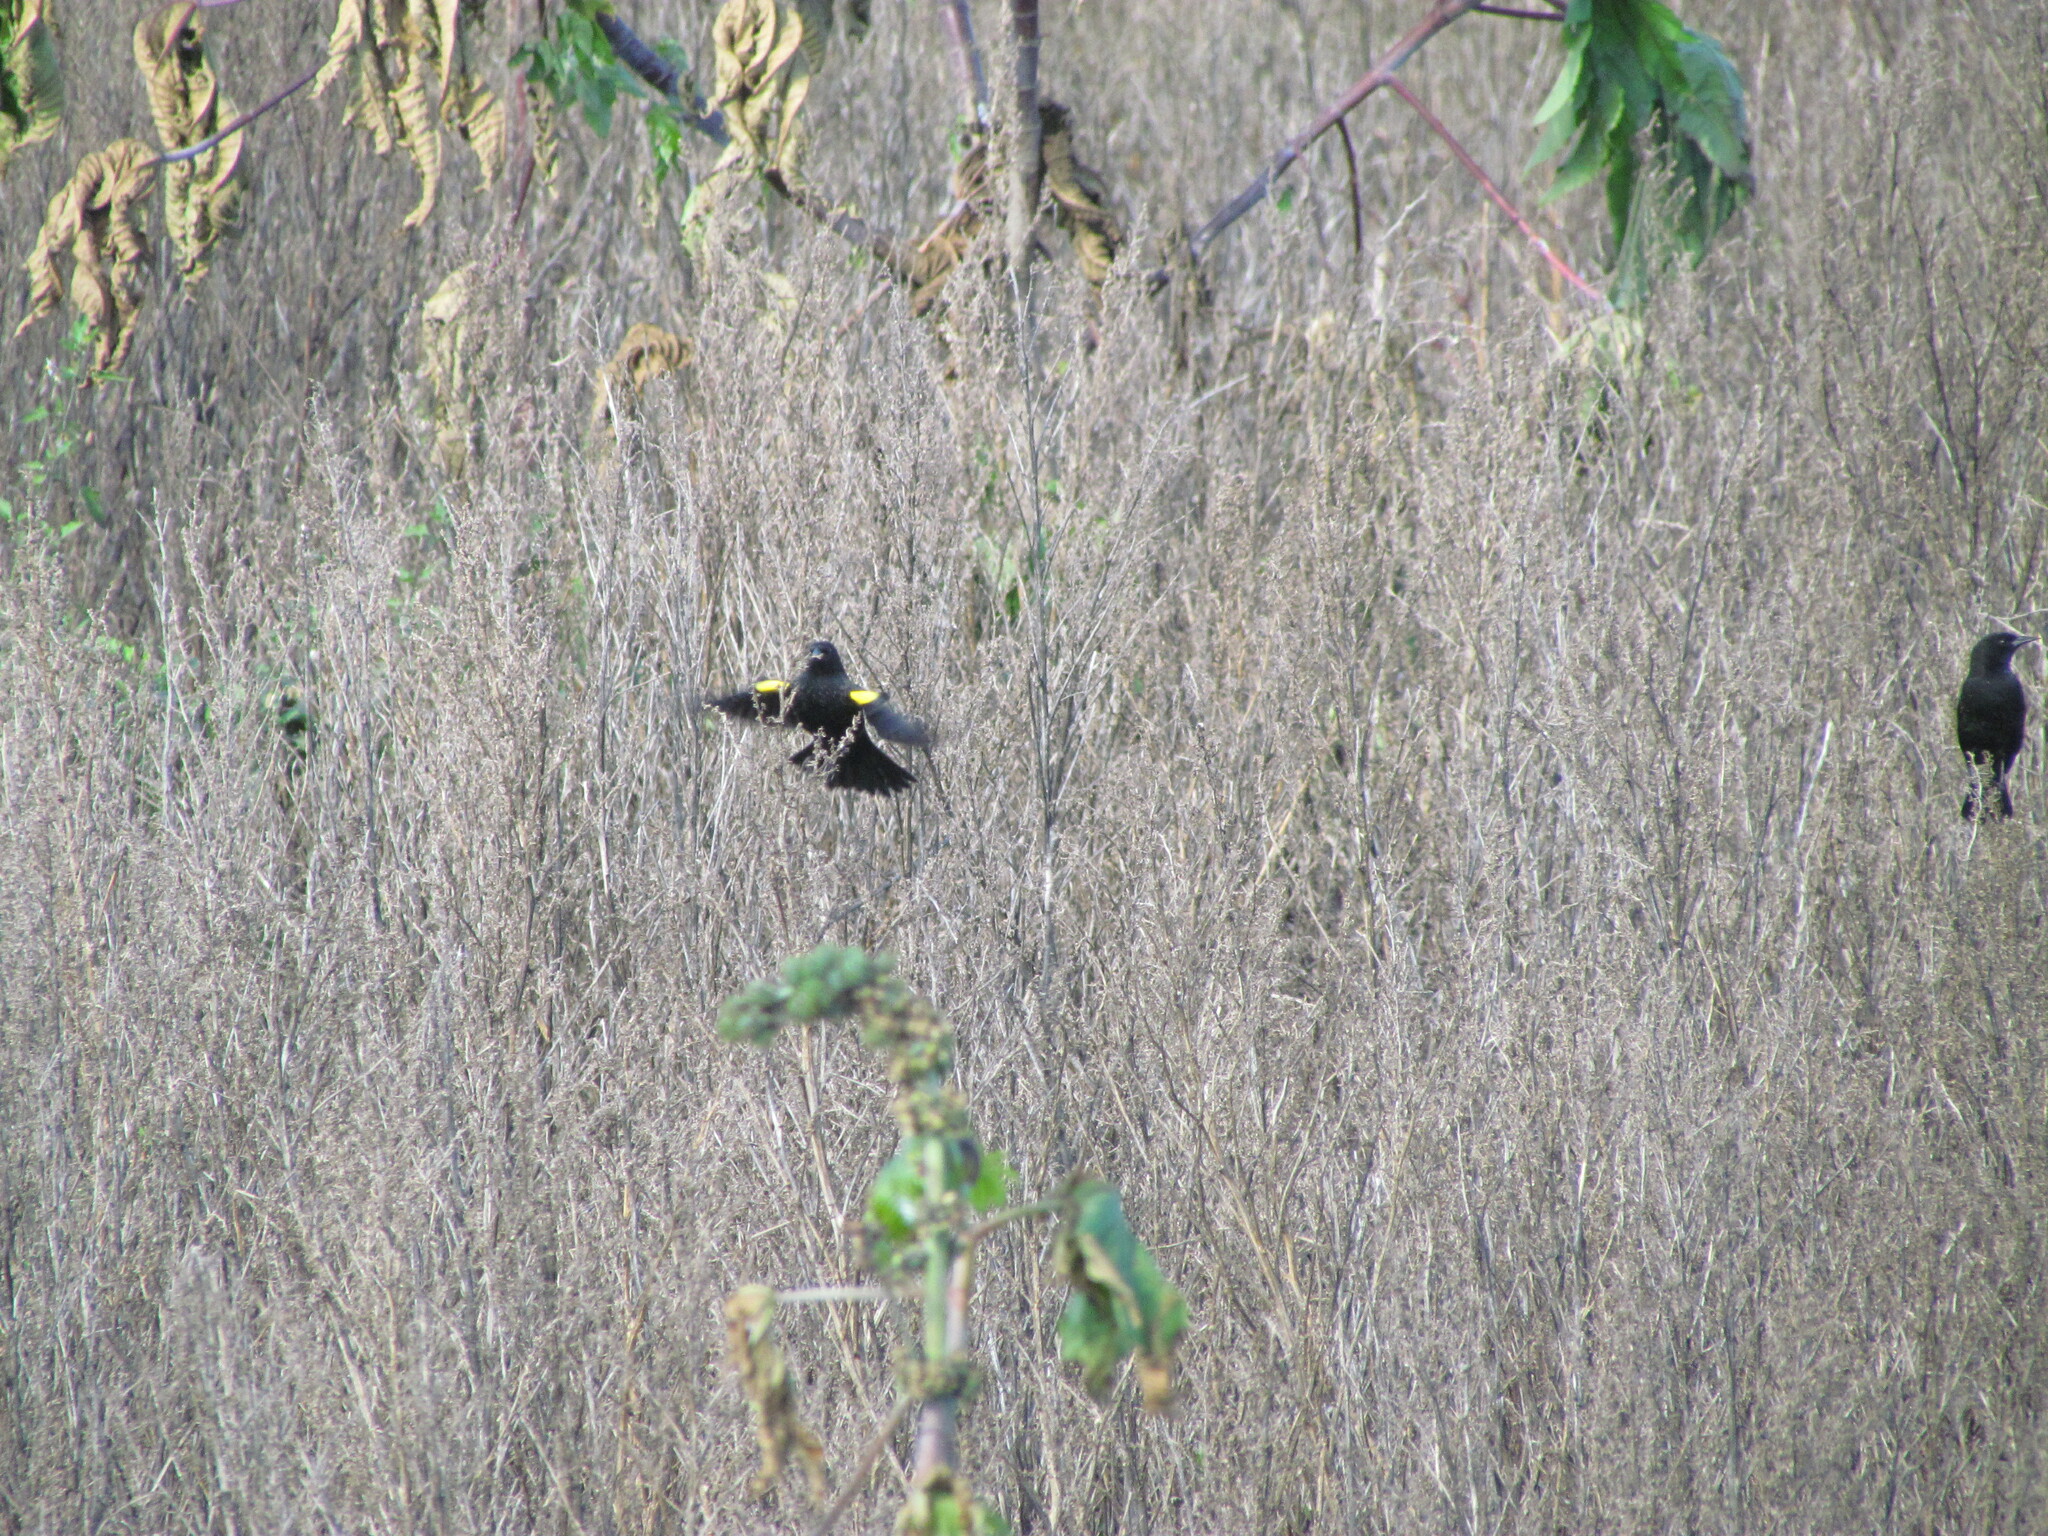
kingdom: Animalia
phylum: Chordata
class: Aves
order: Passeriformes
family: Icteridae
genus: Agelasticus
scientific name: Agelasticus thilius
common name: Yellow-winged blackbird
